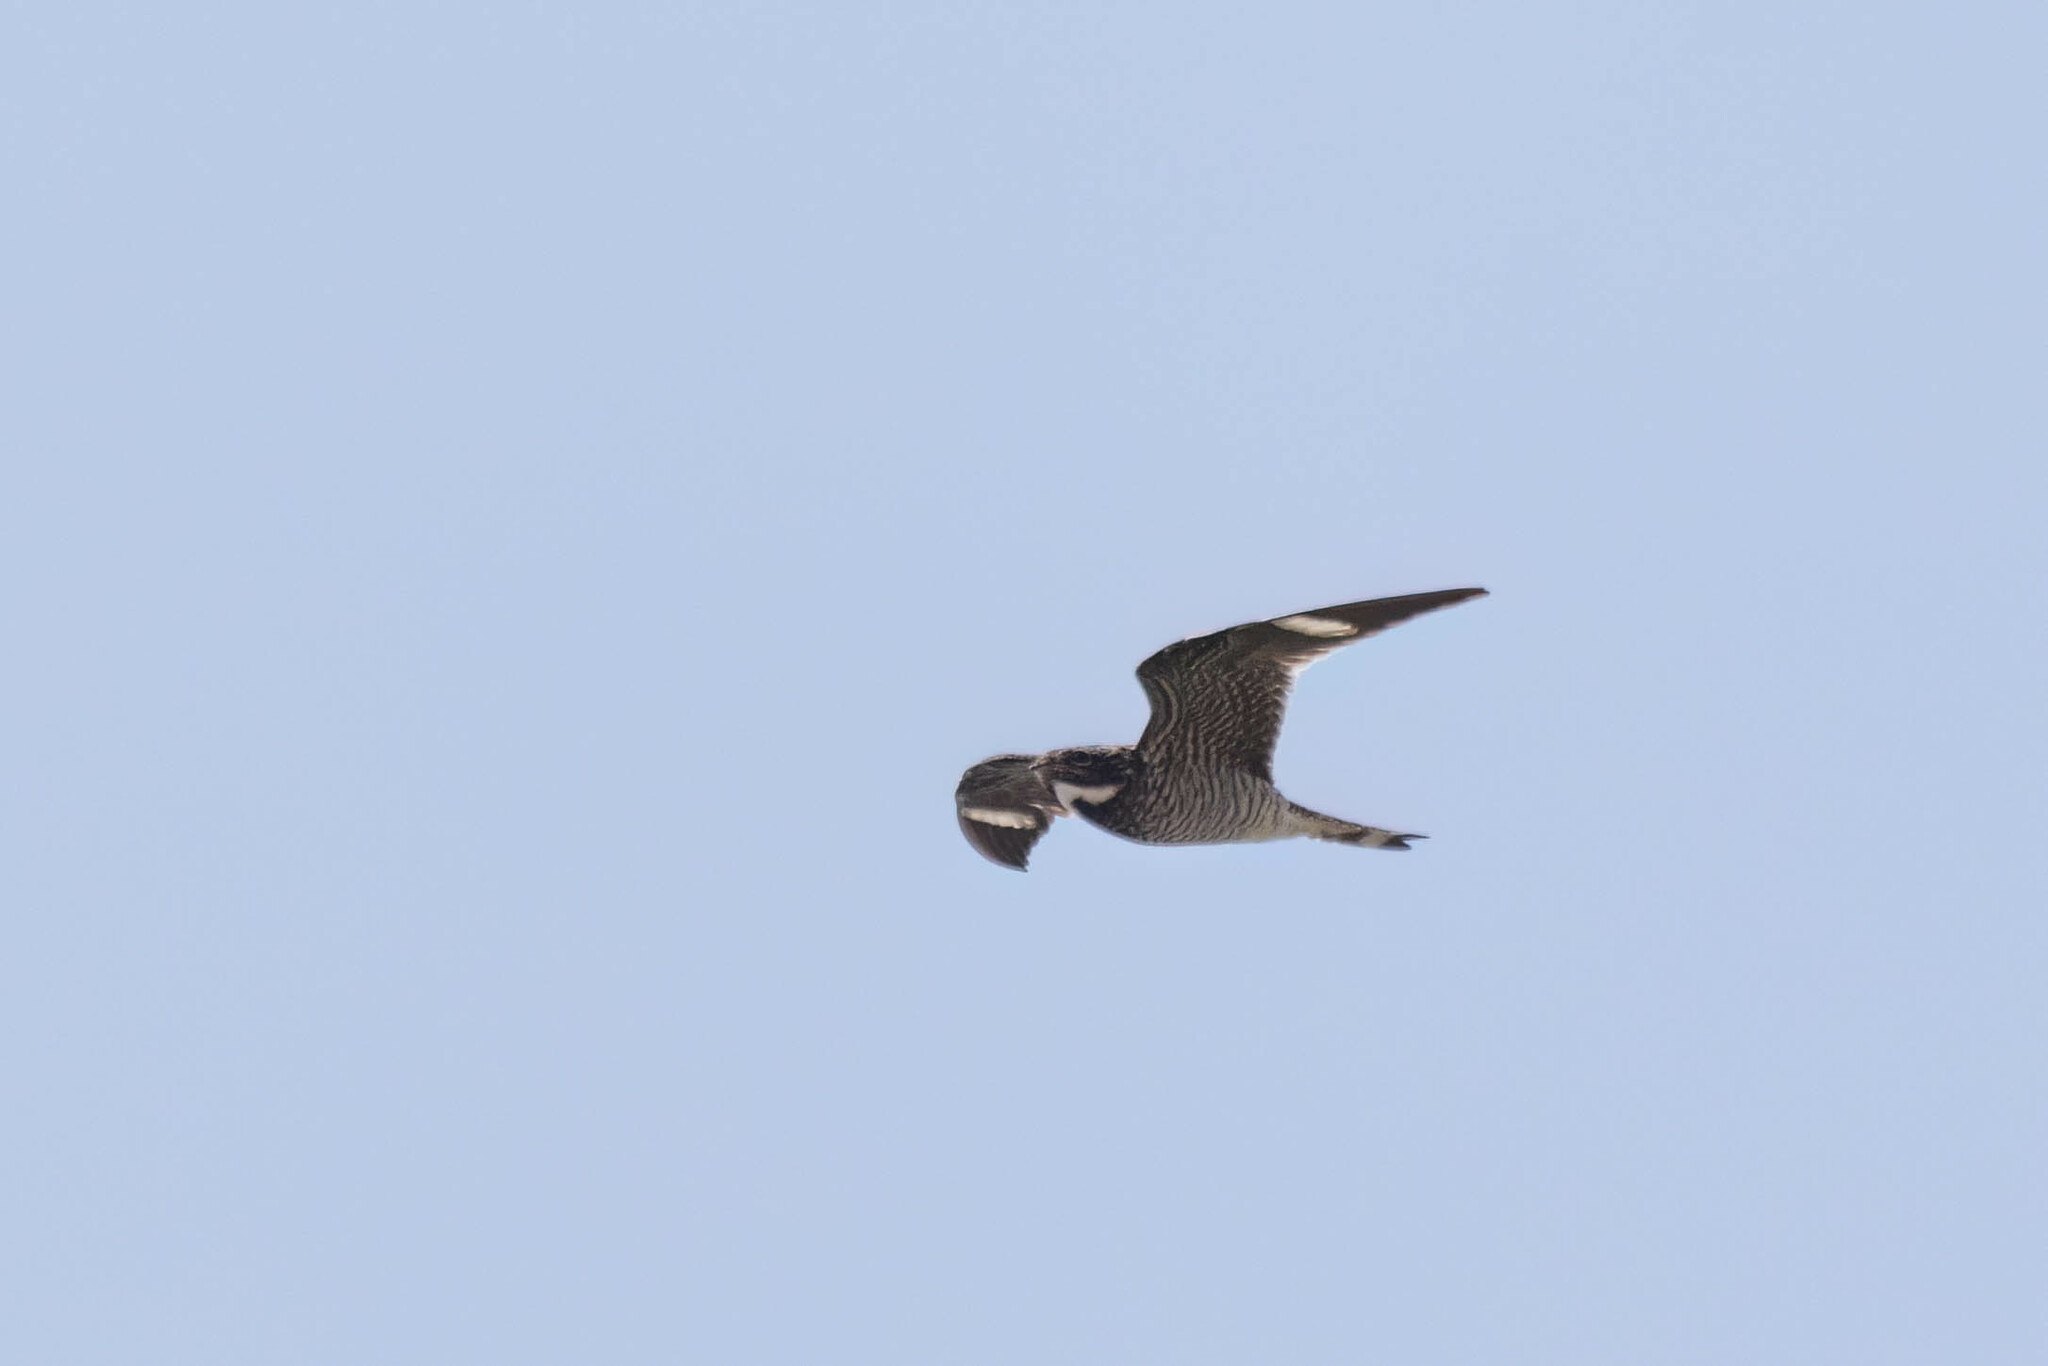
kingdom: Animalia
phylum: Chordata
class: Aves
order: Caprimulgiformes
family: Caprimulgidae
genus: Chordeiles
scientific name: Chordeiles minor
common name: Common nighthawk
